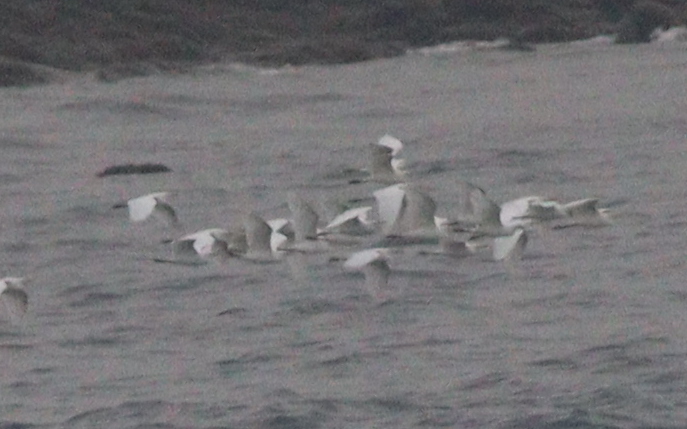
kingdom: Animalia
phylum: Chordata
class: Aves
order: Pelecaniformes
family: Ardeidae
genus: Bubulcus
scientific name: Bubulcus ibis
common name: Cattle egret
